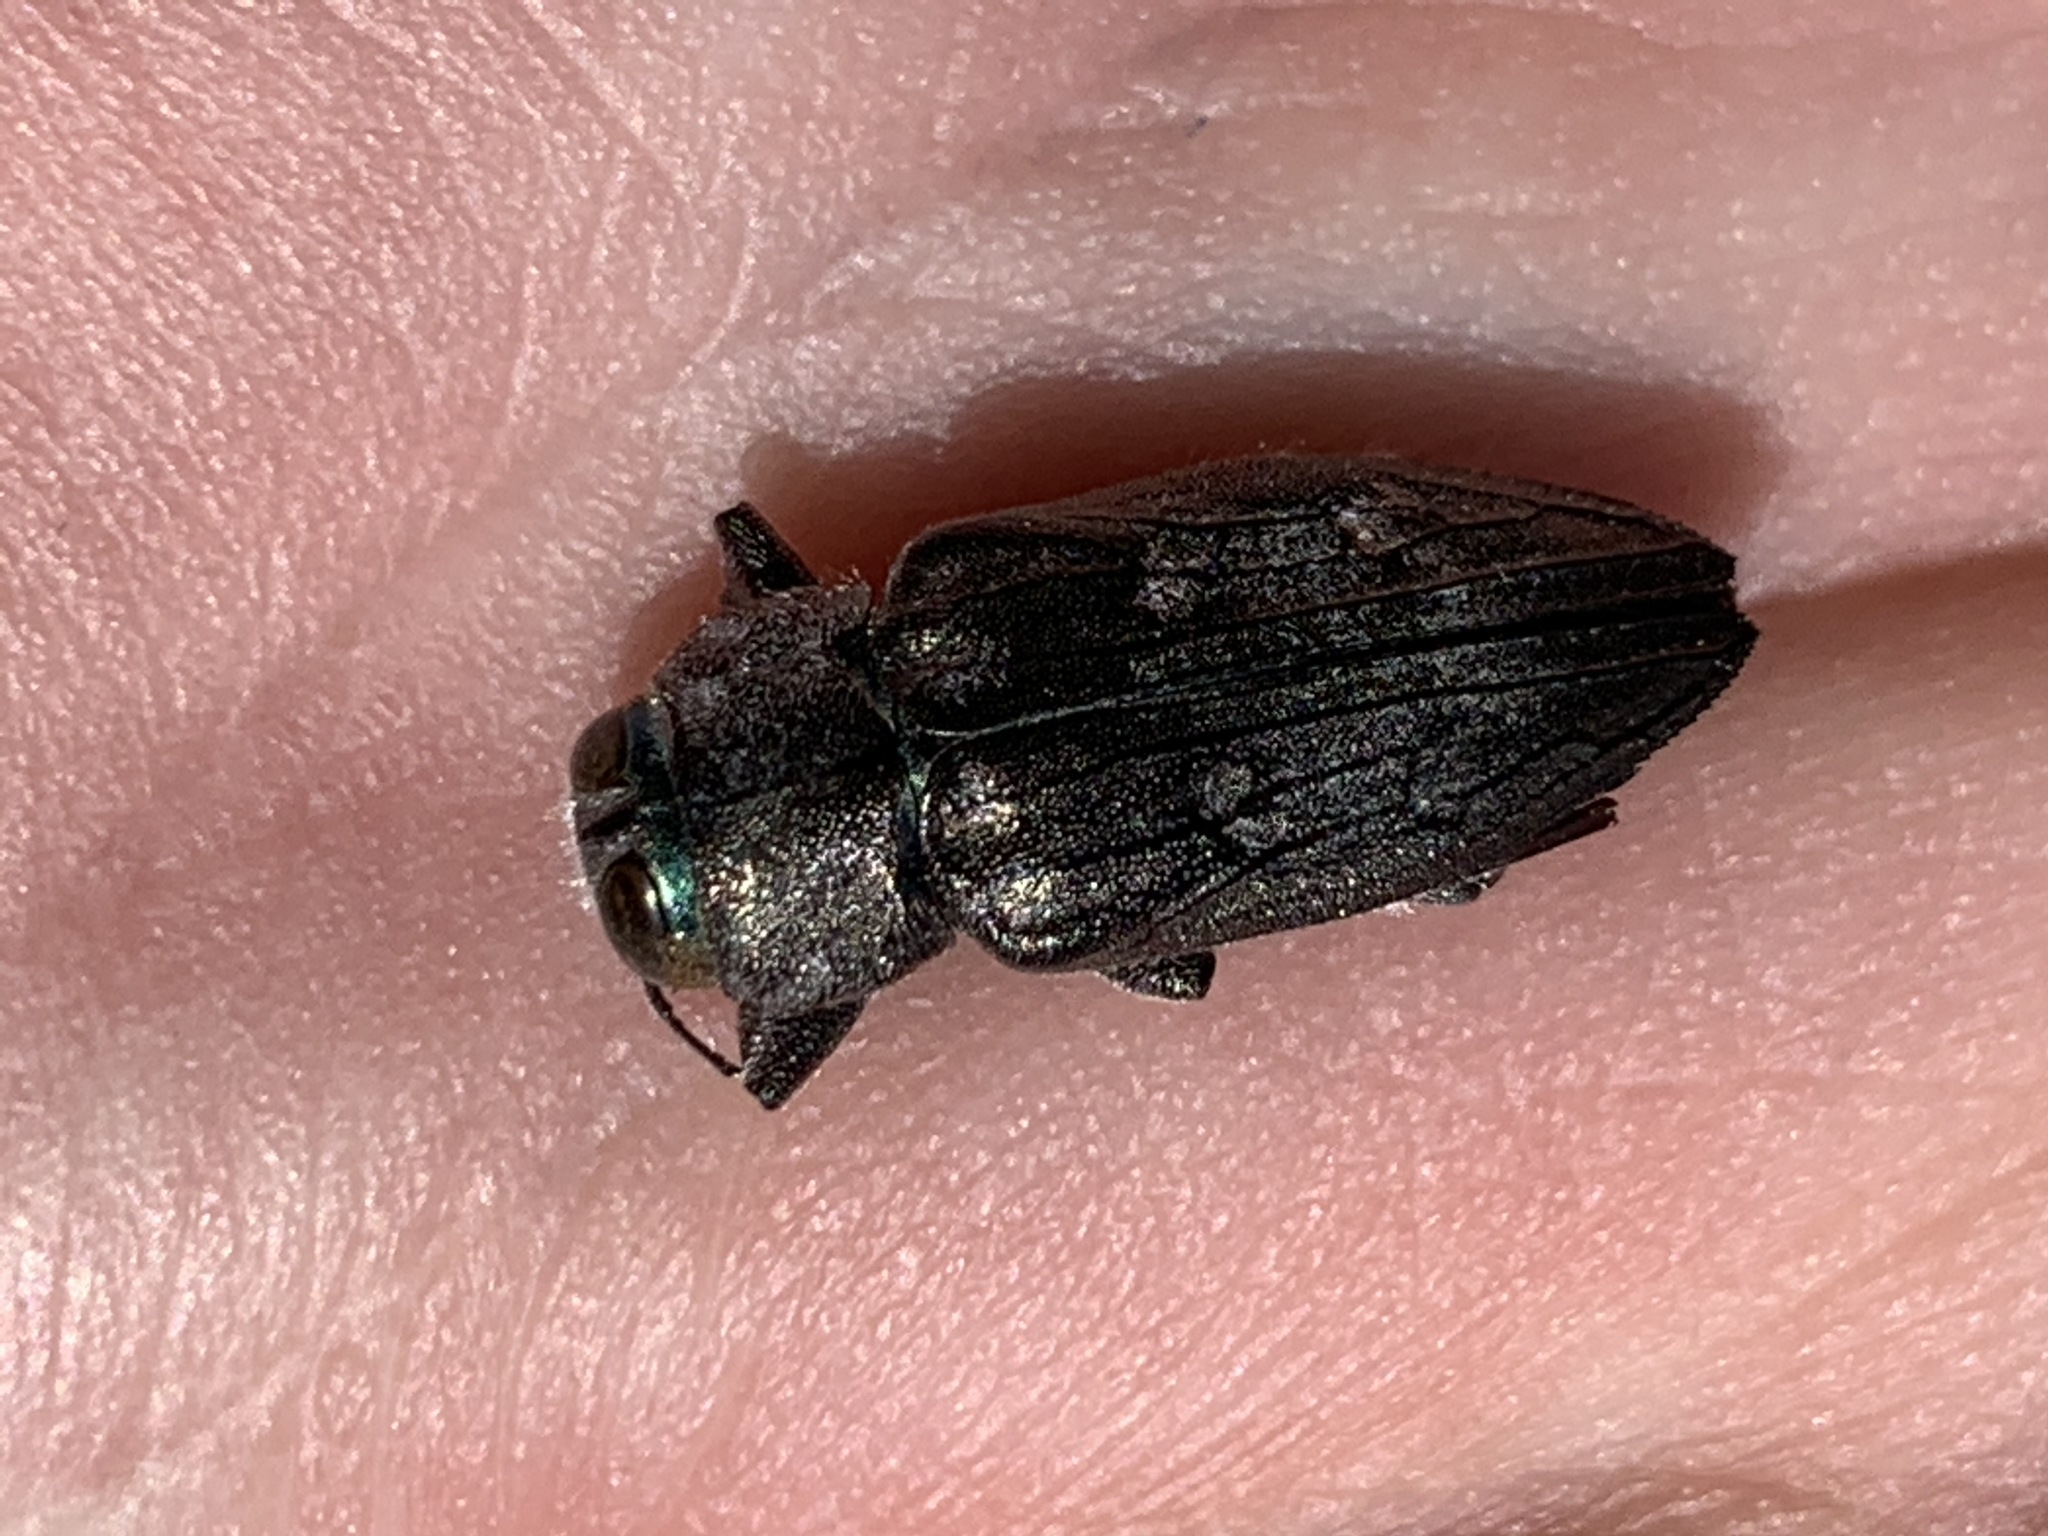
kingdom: Animalia
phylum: Arthropoda
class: Insecta
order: Coleoptera
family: Buprestidae
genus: Chrysobothris
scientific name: Chrysobothris merkelii
